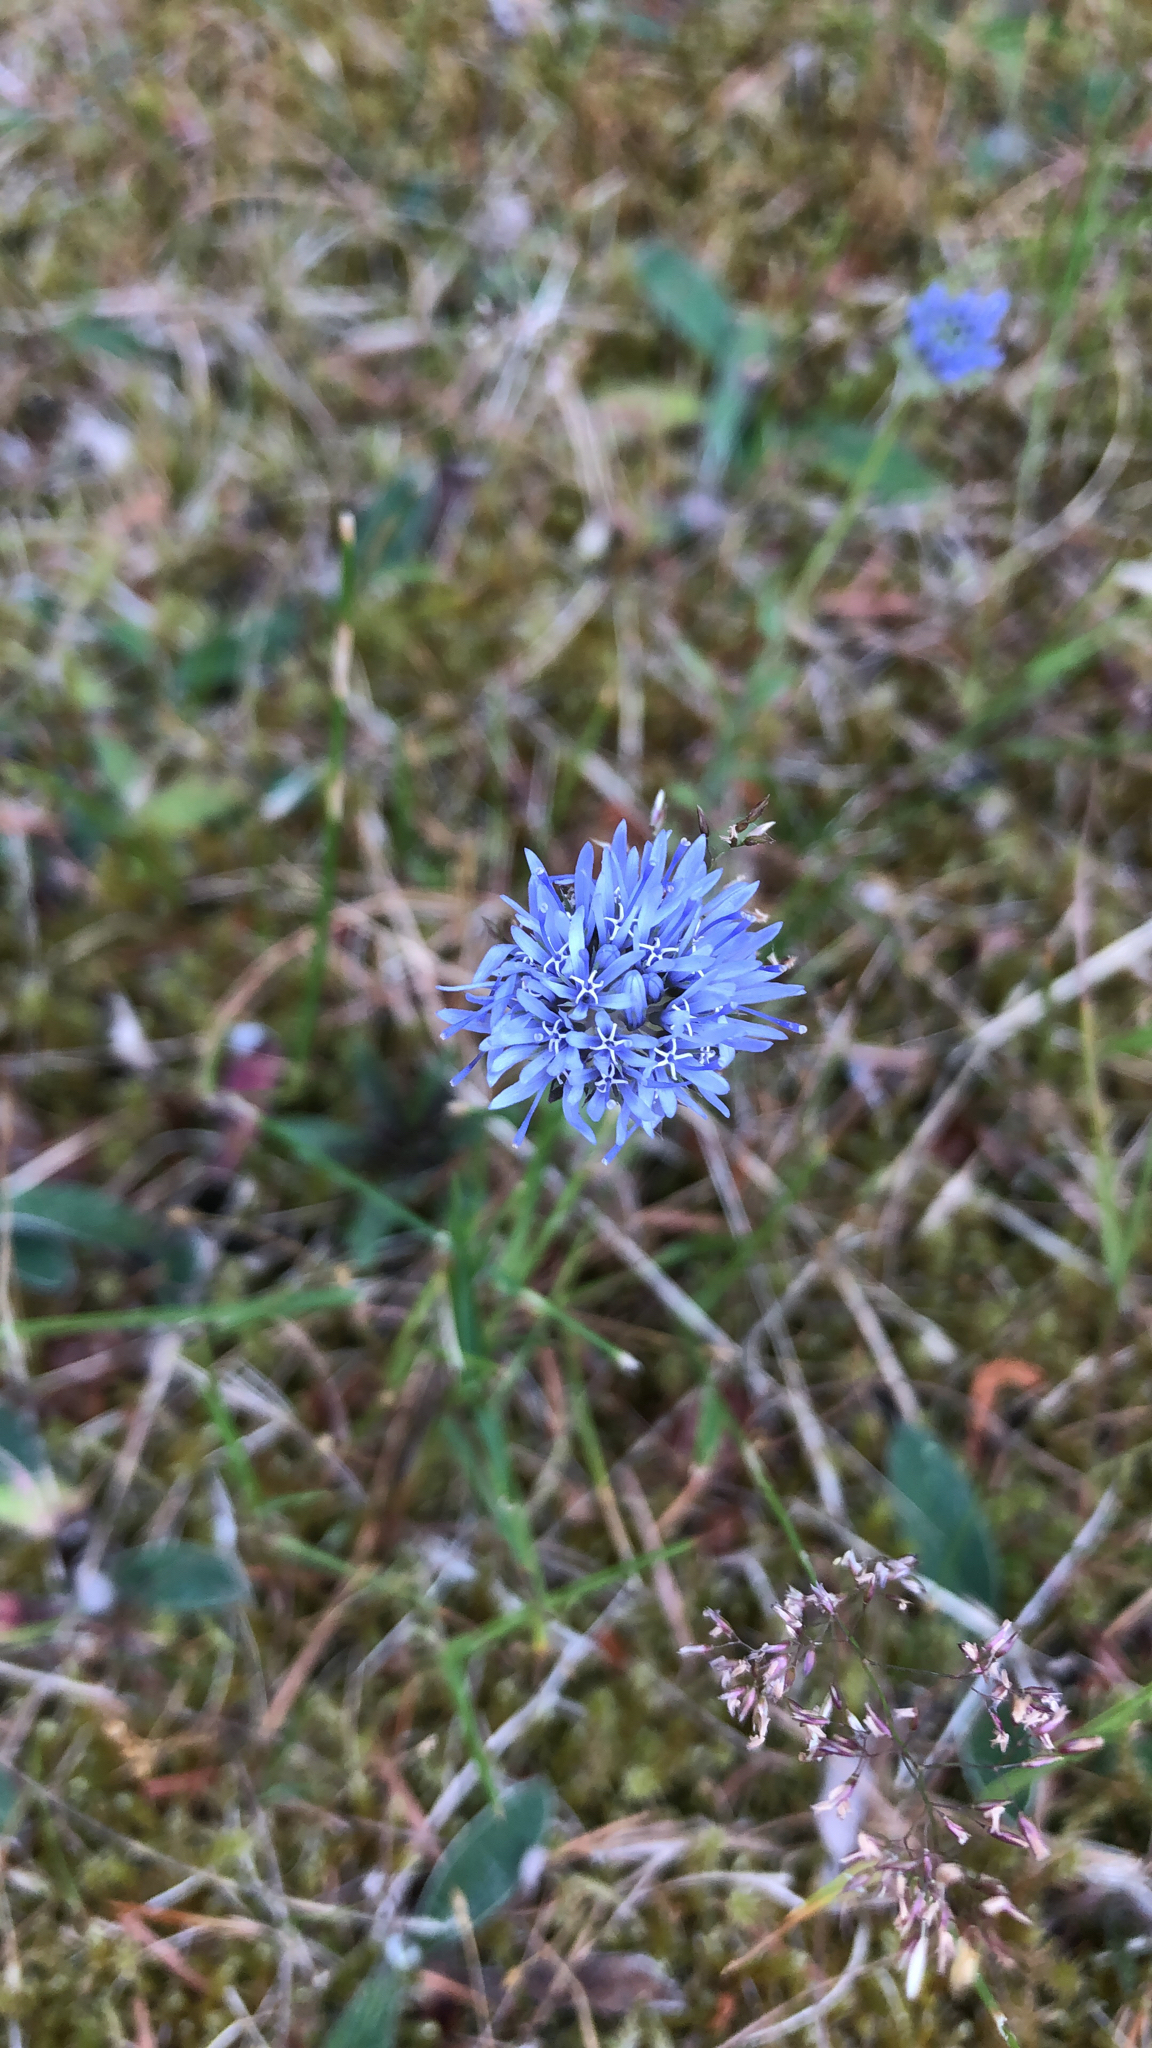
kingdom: Plantae
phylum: Tracheophyta
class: Magnoliopsida
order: Asterales
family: Campanulaceae
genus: Jasione
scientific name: Jasione montana
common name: Sheep's-bit
